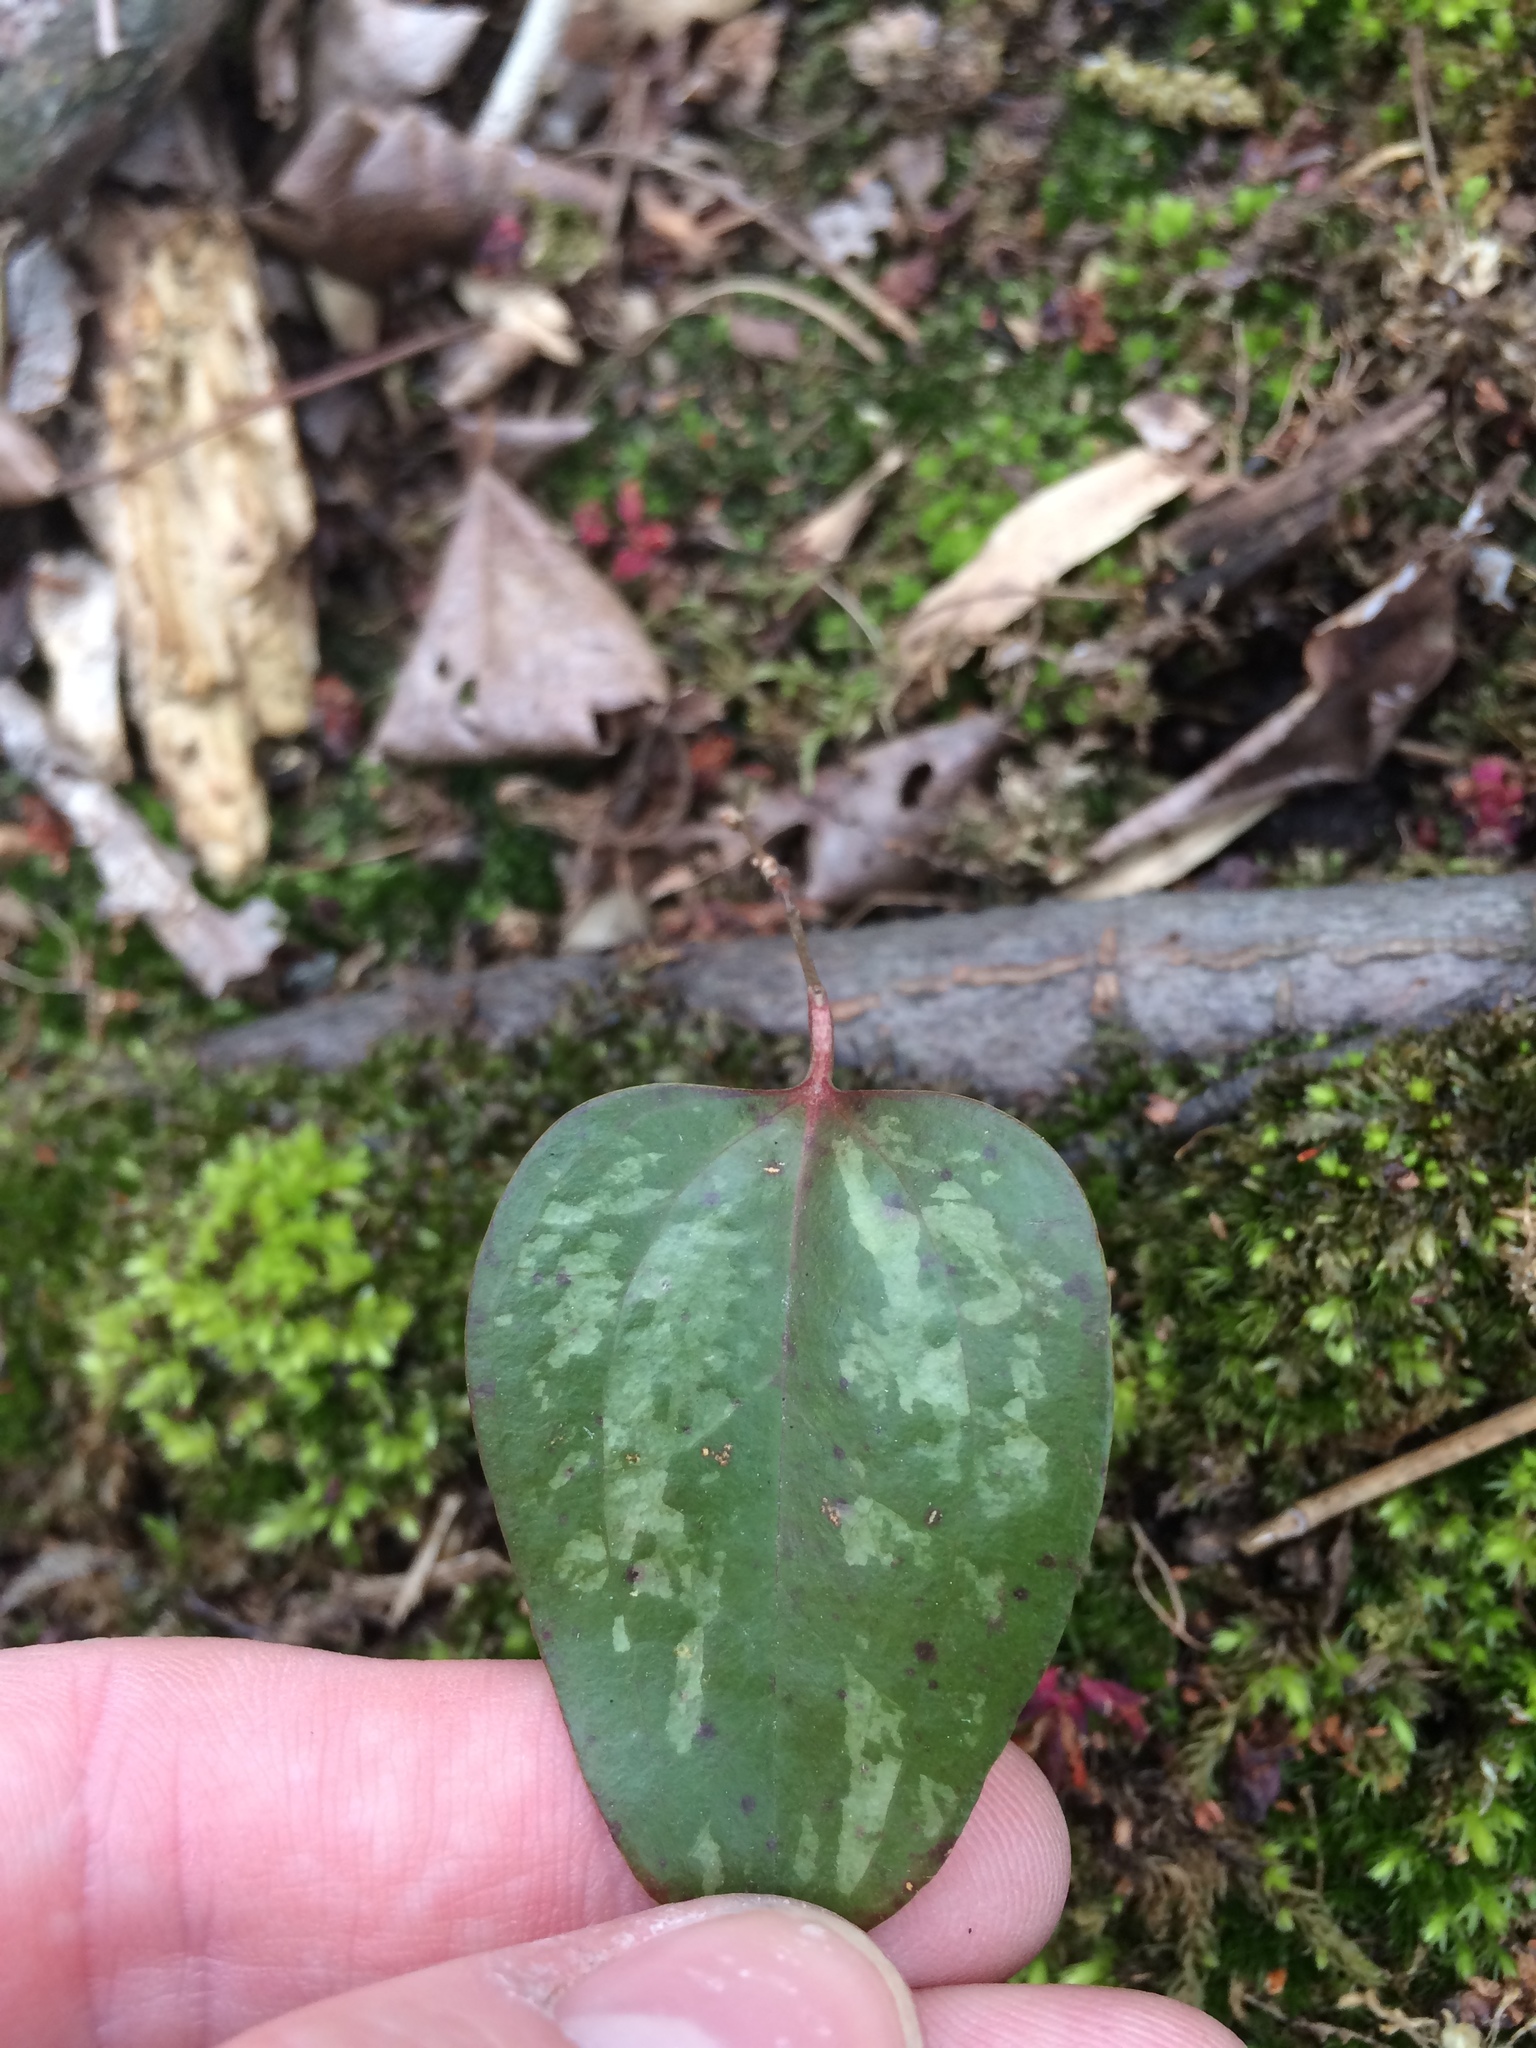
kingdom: Plantae
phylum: Tracheophyta
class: Liliopsida
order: Liliales
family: Smilacaceae
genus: Smilax
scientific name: Smilax glauca
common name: Cat greenbrier
